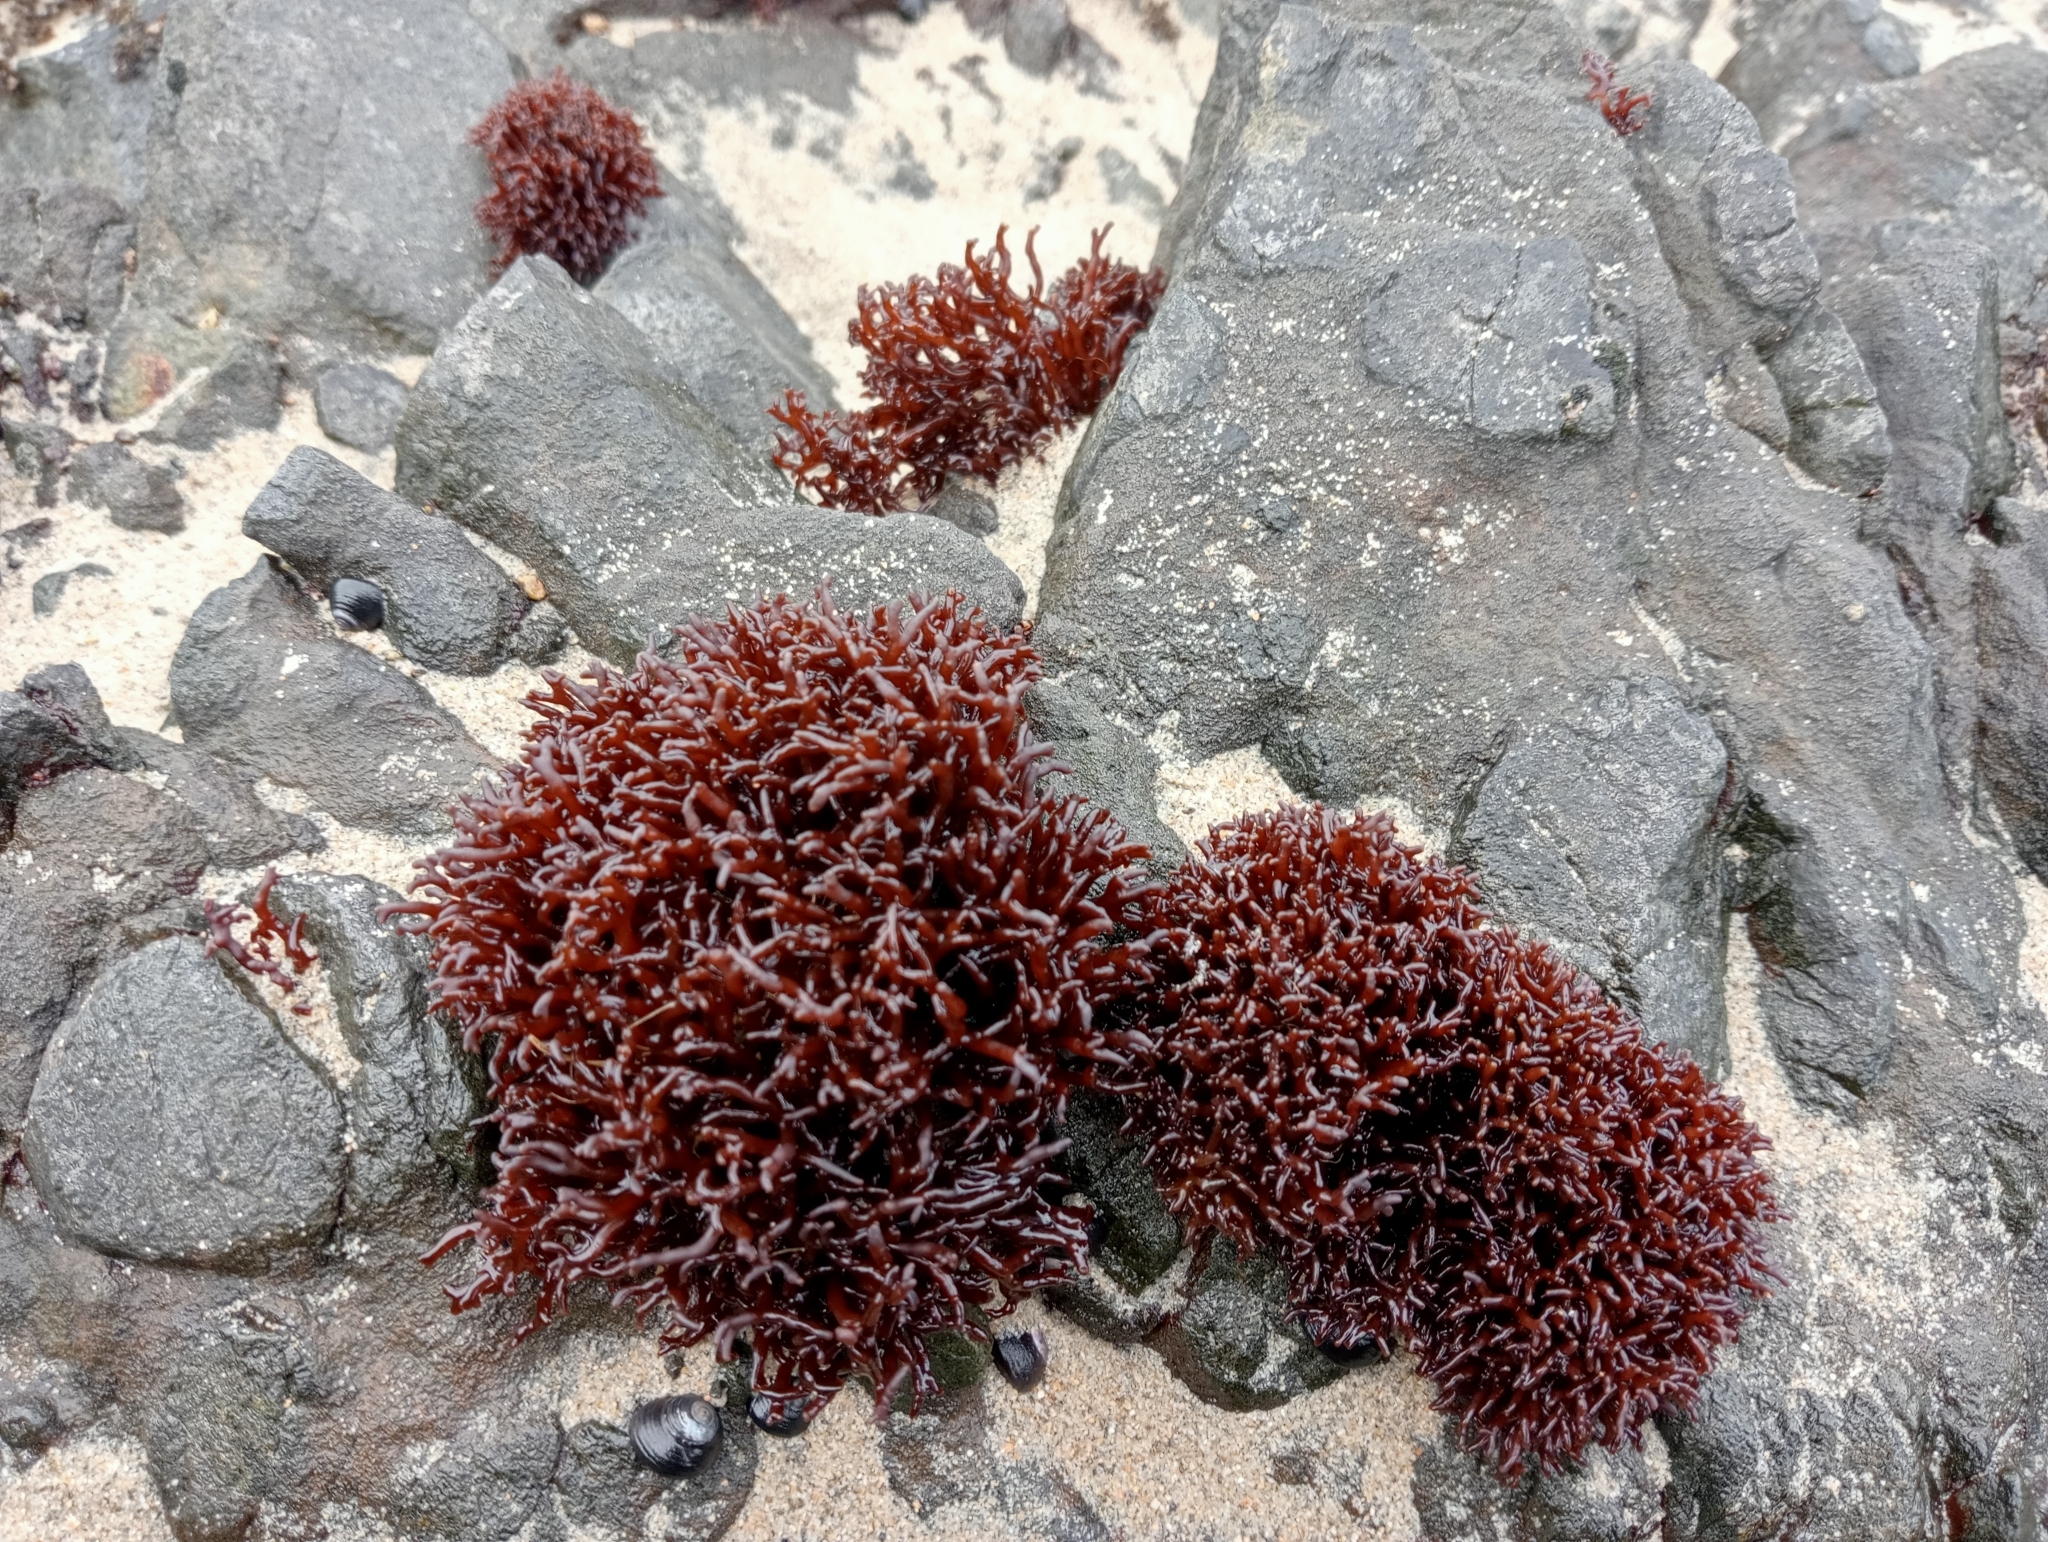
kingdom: Plantae
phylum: Rhodophyta
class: Florideophyceae
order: Hildenbrandiales
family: Hildenbrandiaceae
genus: Apophlaea
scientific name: Apophlaea lyallii
